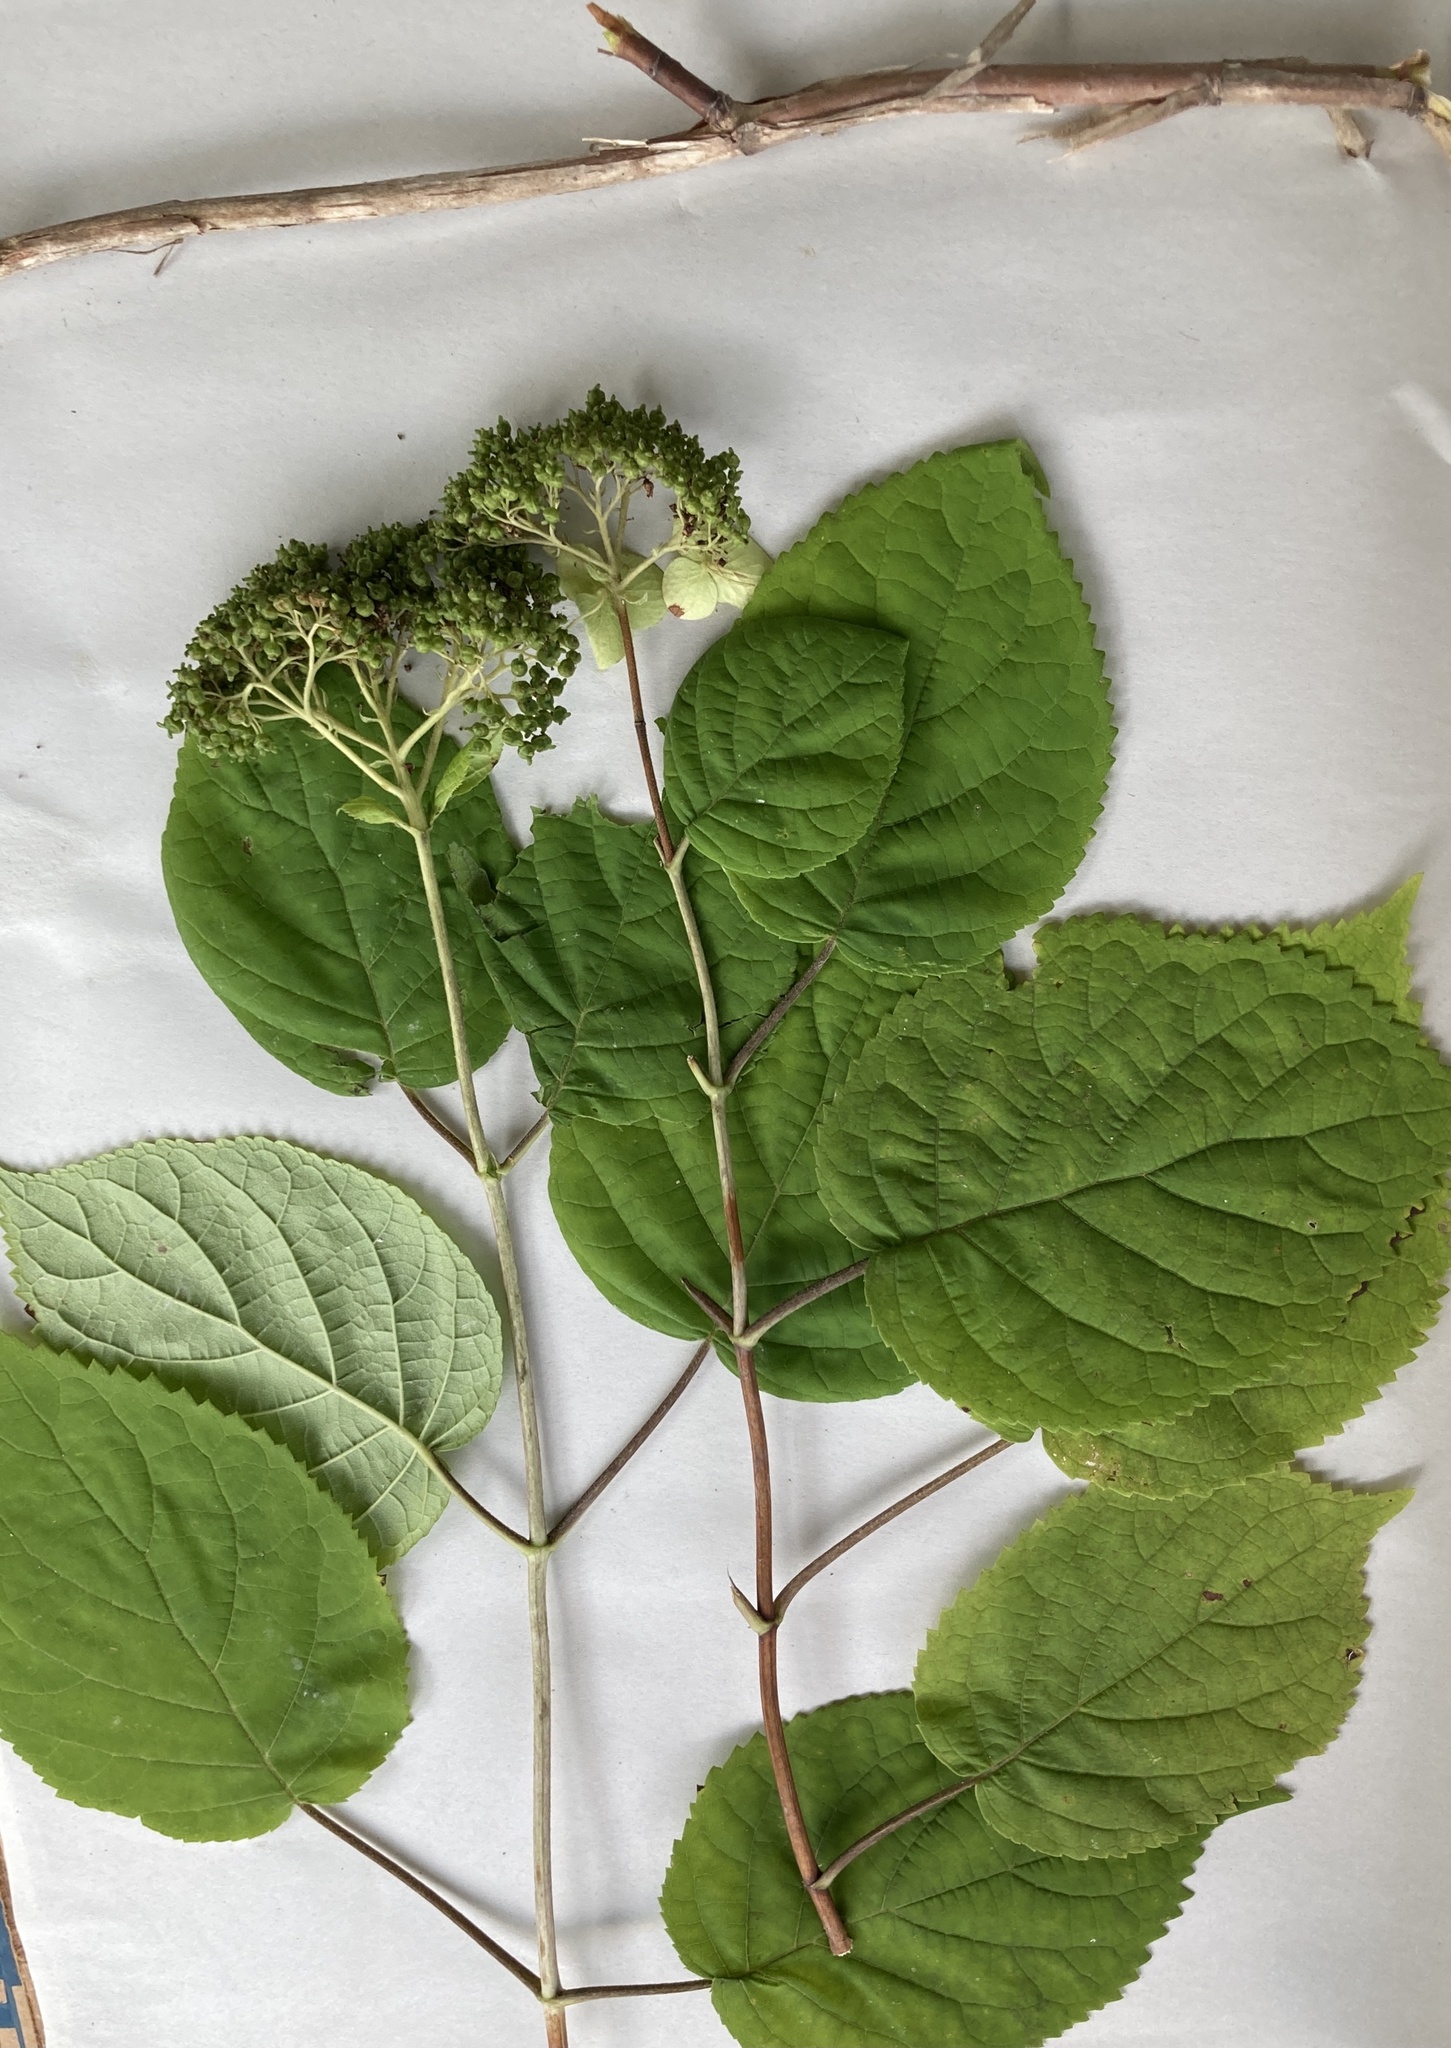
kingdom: Plantae
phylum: Tracheophyta
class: Magnoliopsida
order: Cornales
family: Hydrangeaceae
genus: Hydrangea
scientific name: Hydrangea arborescens
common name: Sevenbark
